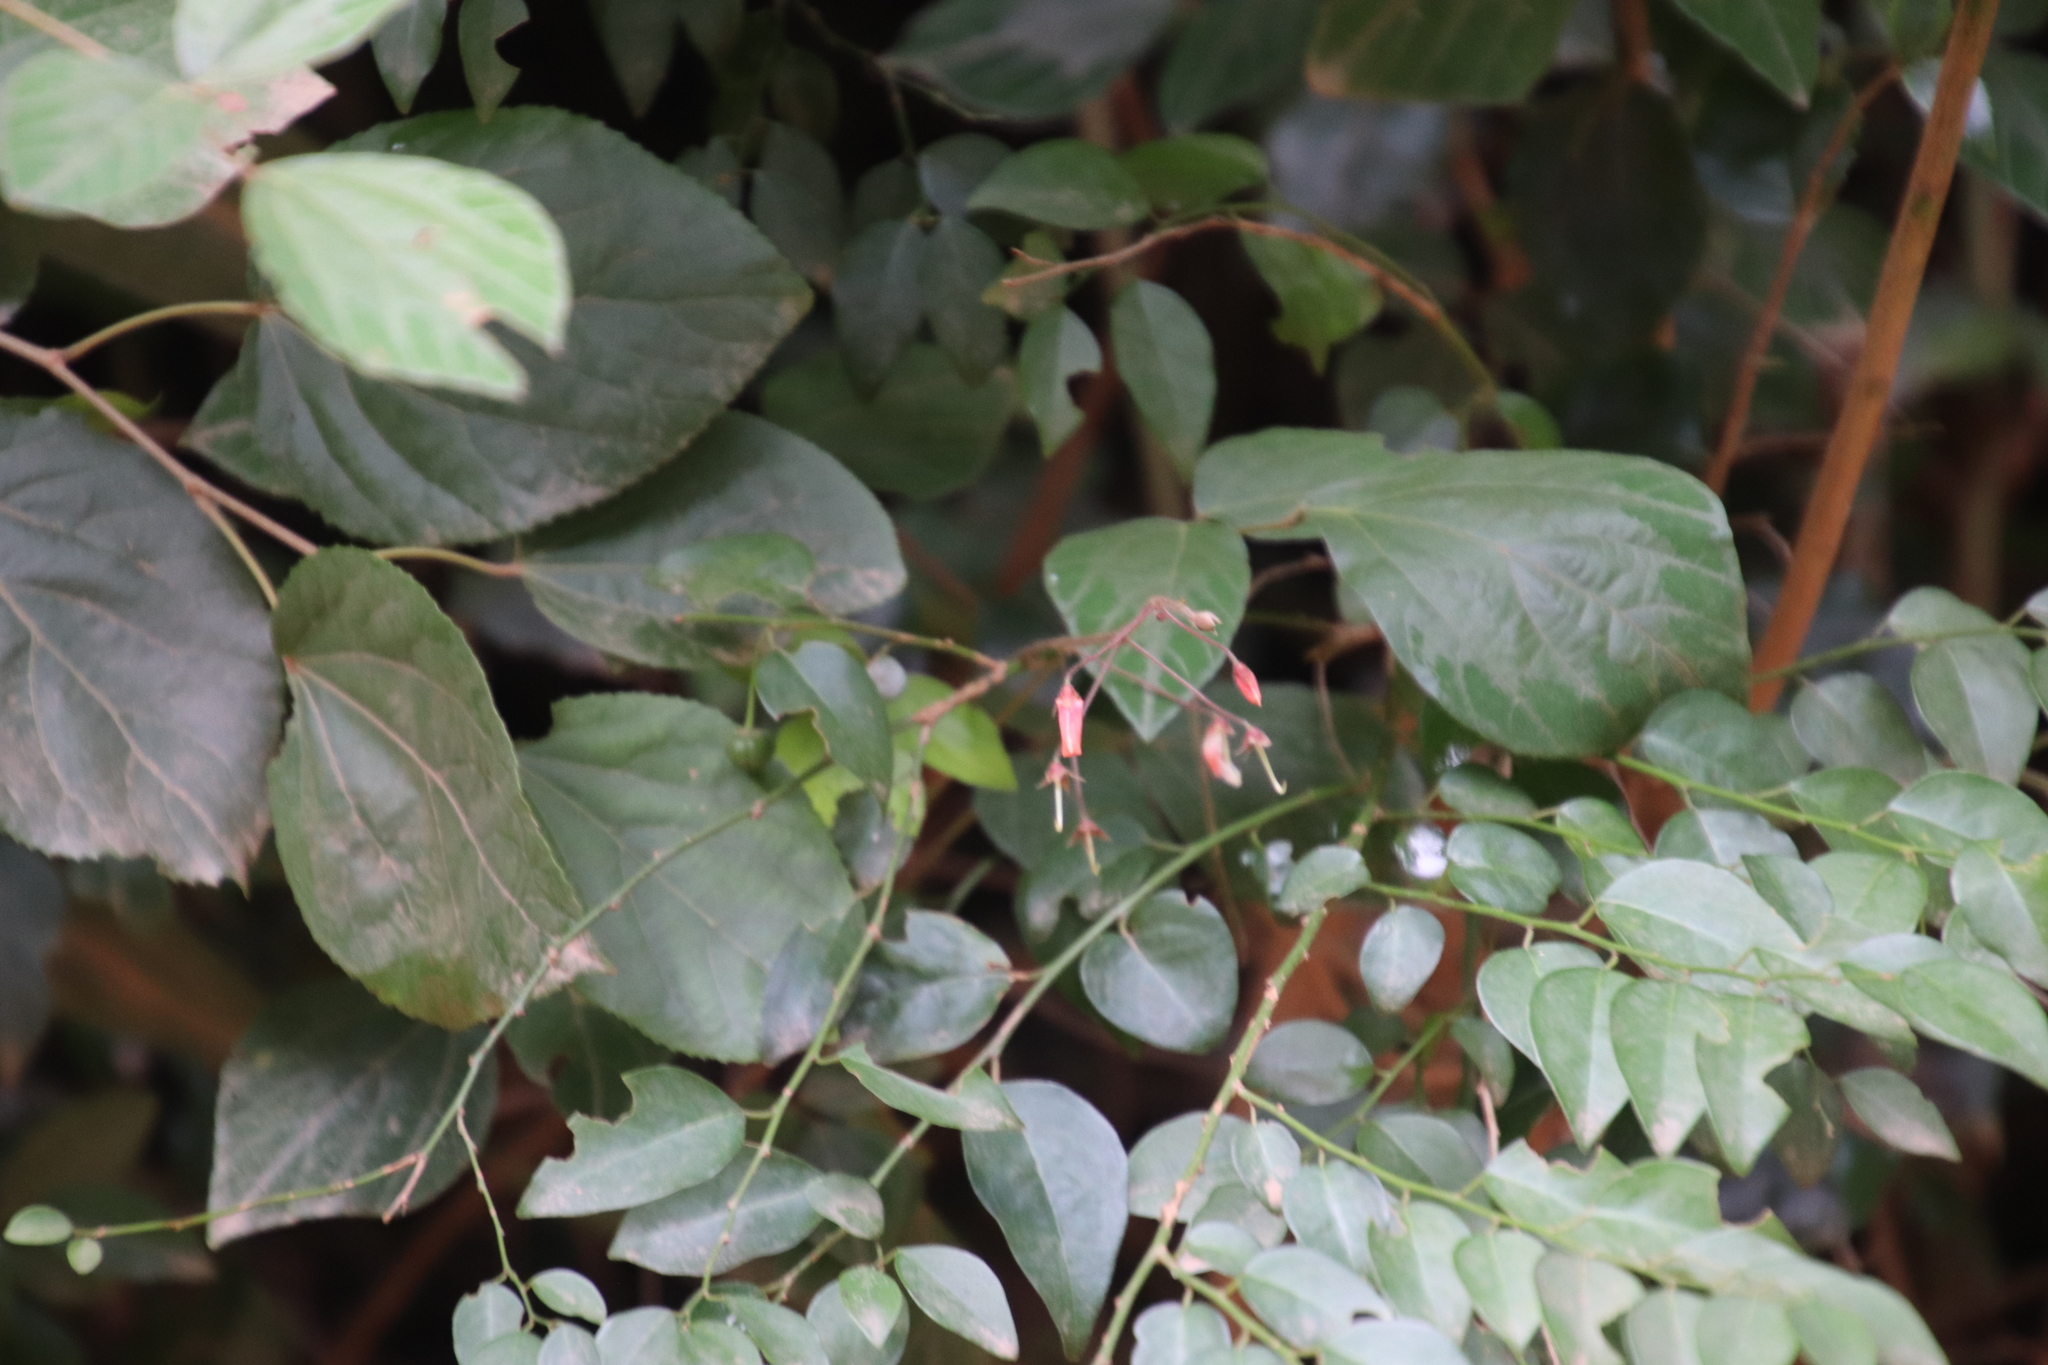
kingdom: Plantae
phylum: Tracheophyta
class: Magnoliopsida
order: Fabales
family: Fabaceae
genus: Hylodesmum
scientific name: Hylodesmum repandum
